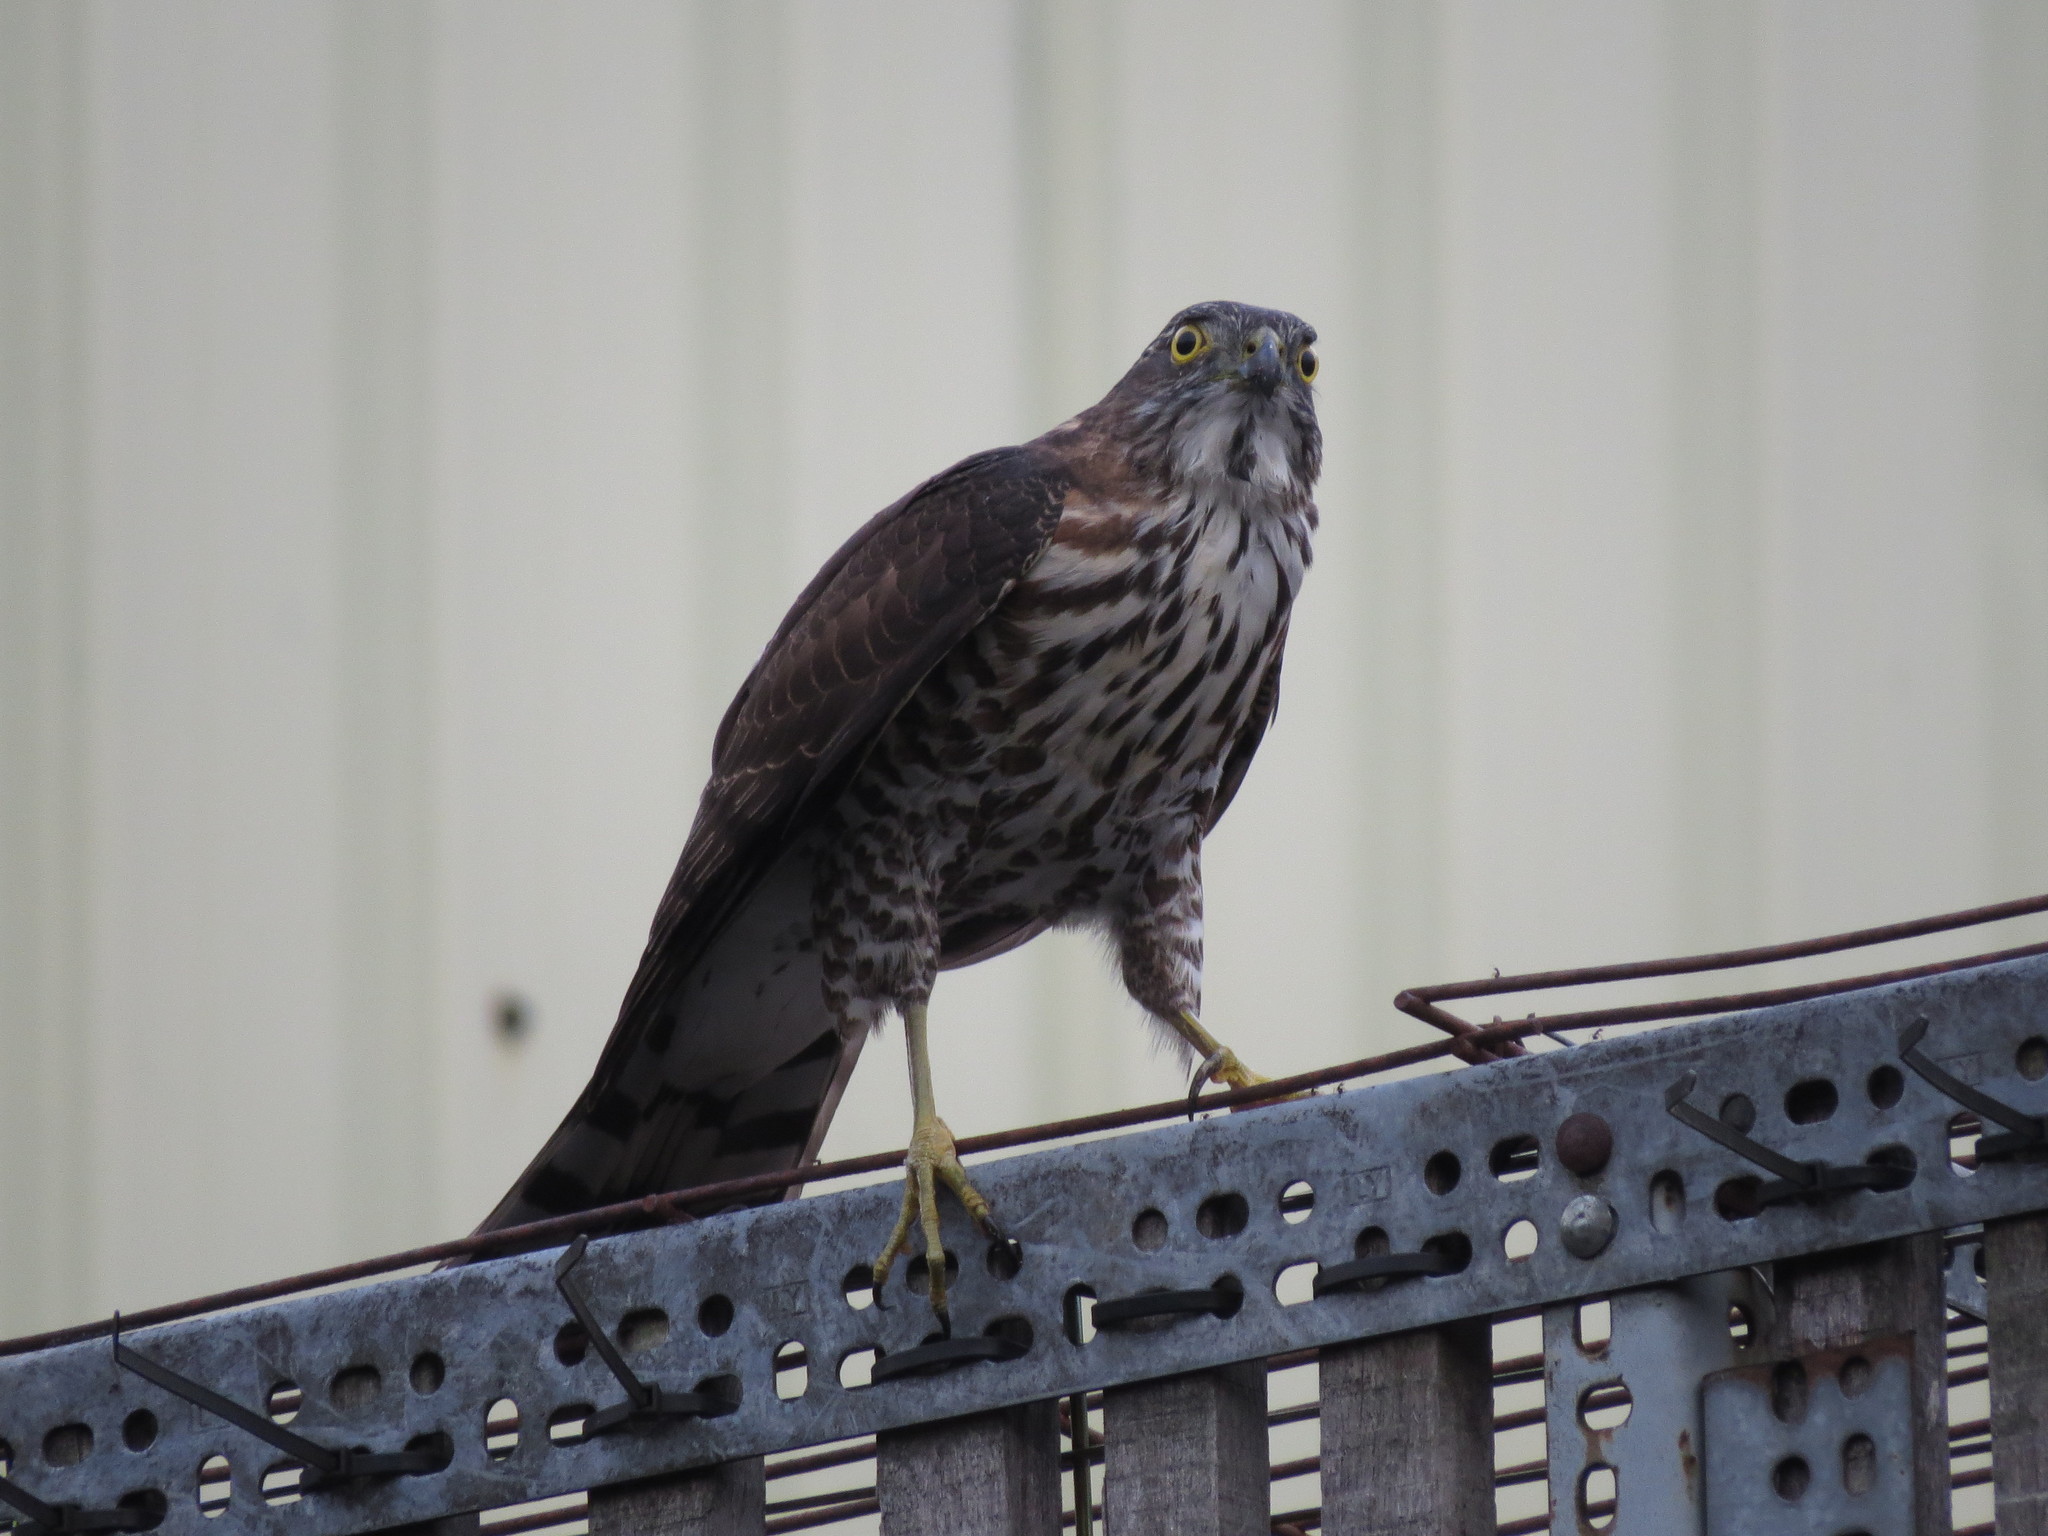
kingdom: Animalia
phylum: Chordata
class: Aves
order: Accipitriformes
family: Accipitridae
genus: Accipiter
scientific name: Accipiter virgatus
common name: Besra
